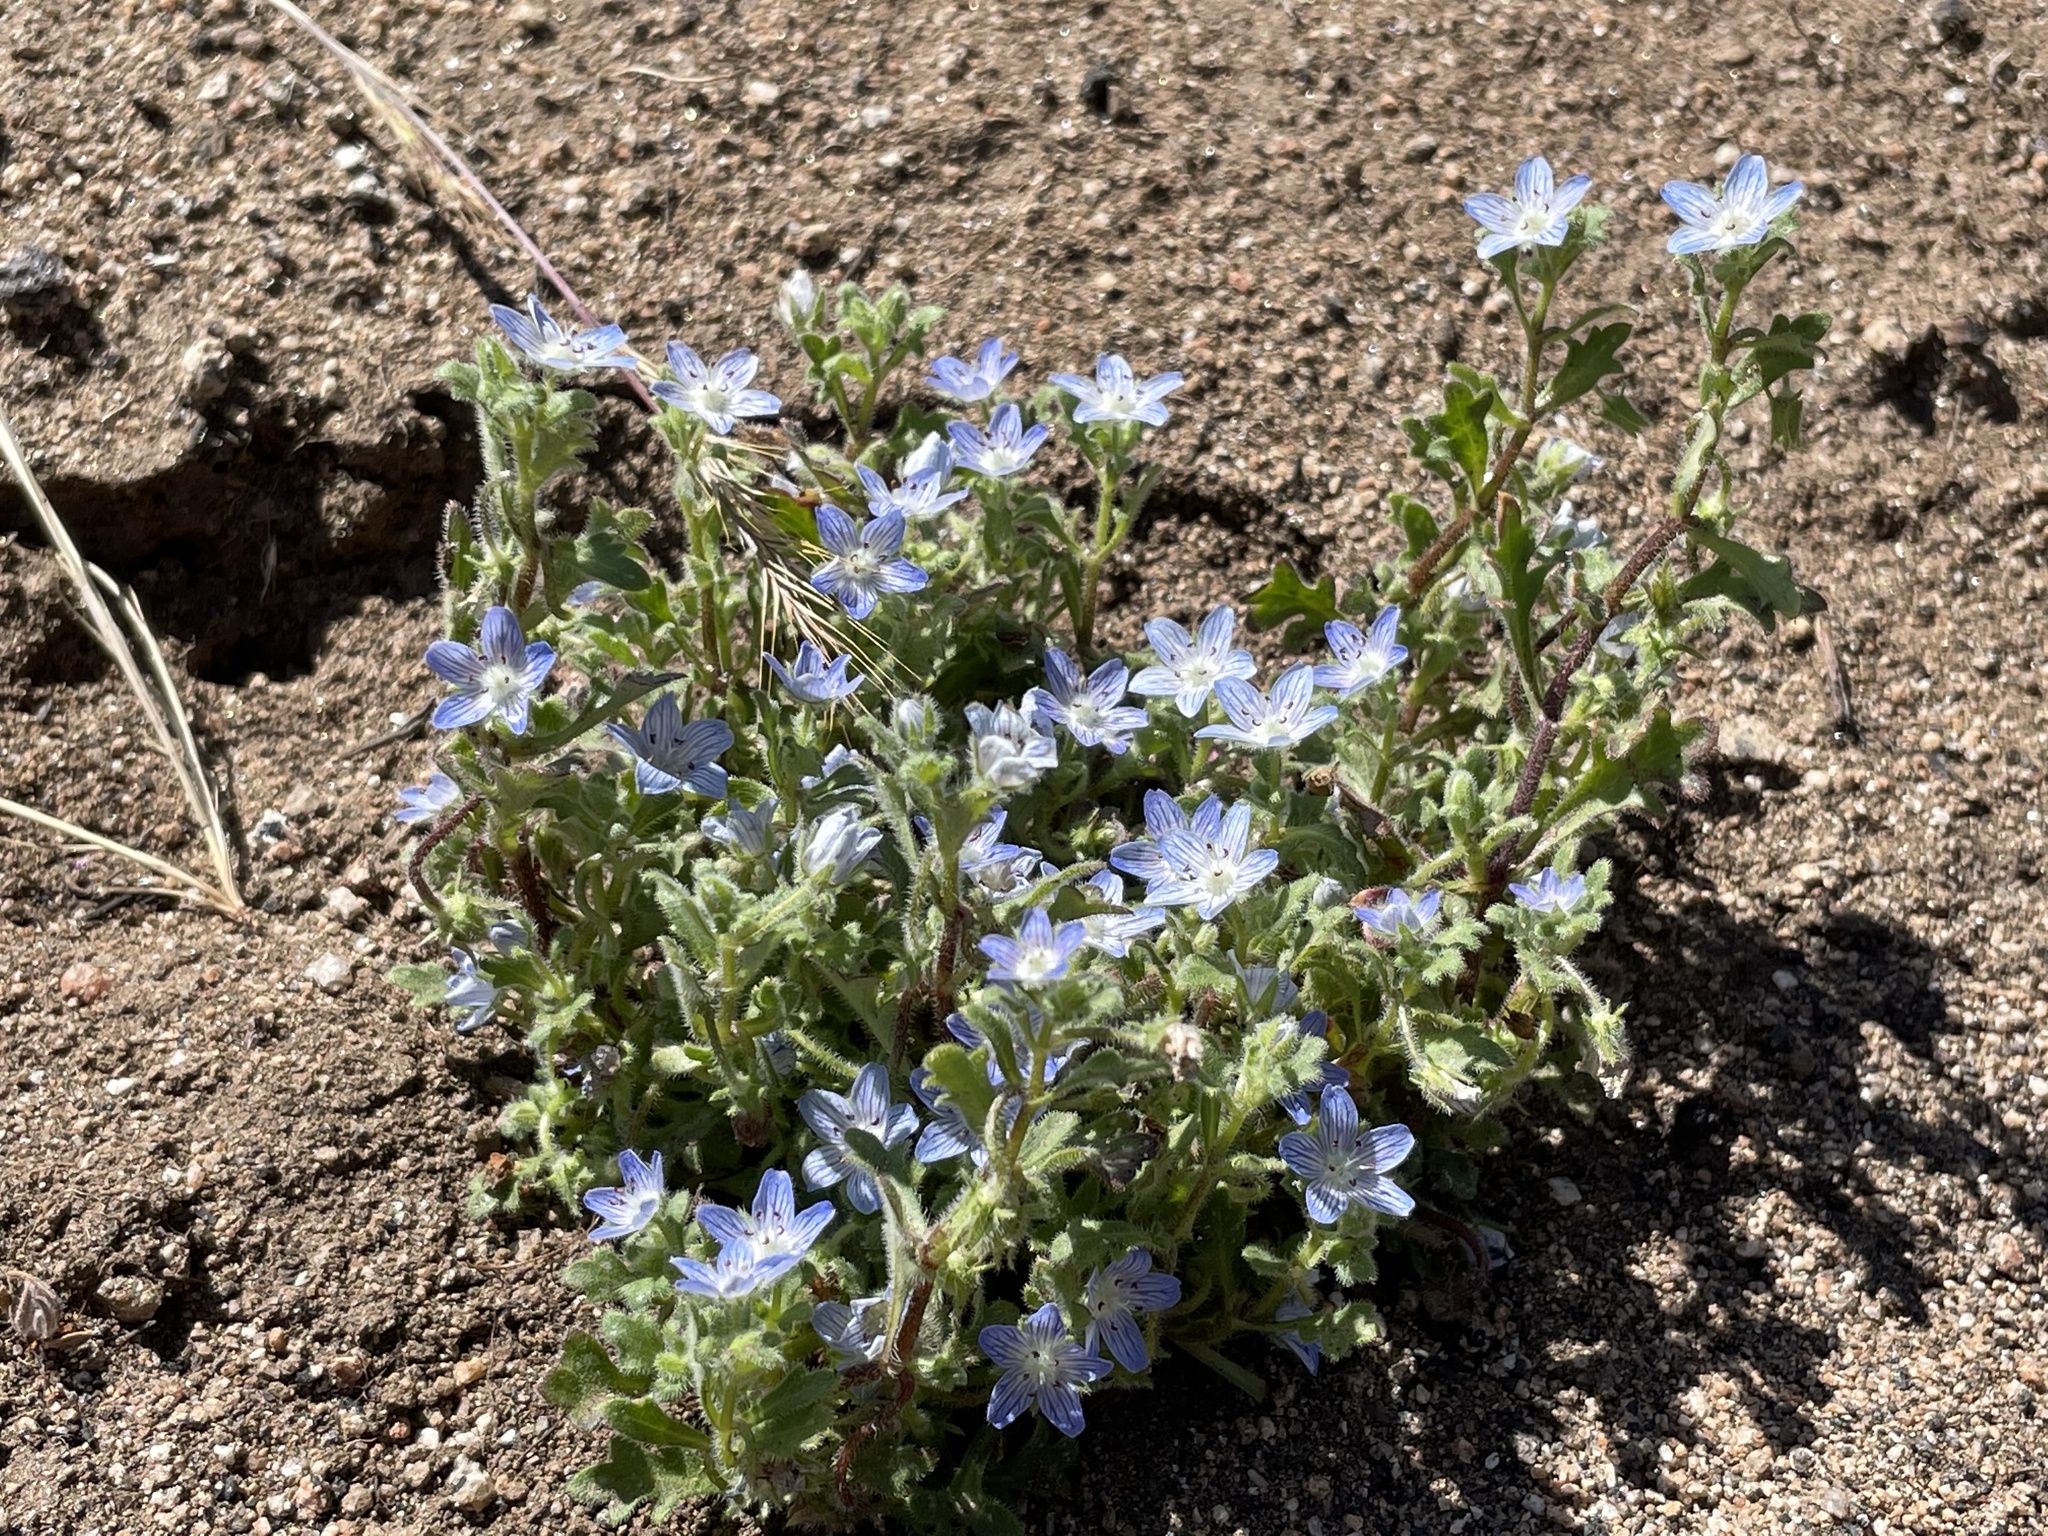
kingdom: Plantae
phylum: Tracheophyta
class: Magnoliopsida
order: Boraginales
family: Hydrophyllaceae
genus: Nemophila
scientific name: Nemophila menziesii
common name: Baby's-blue-eyes
